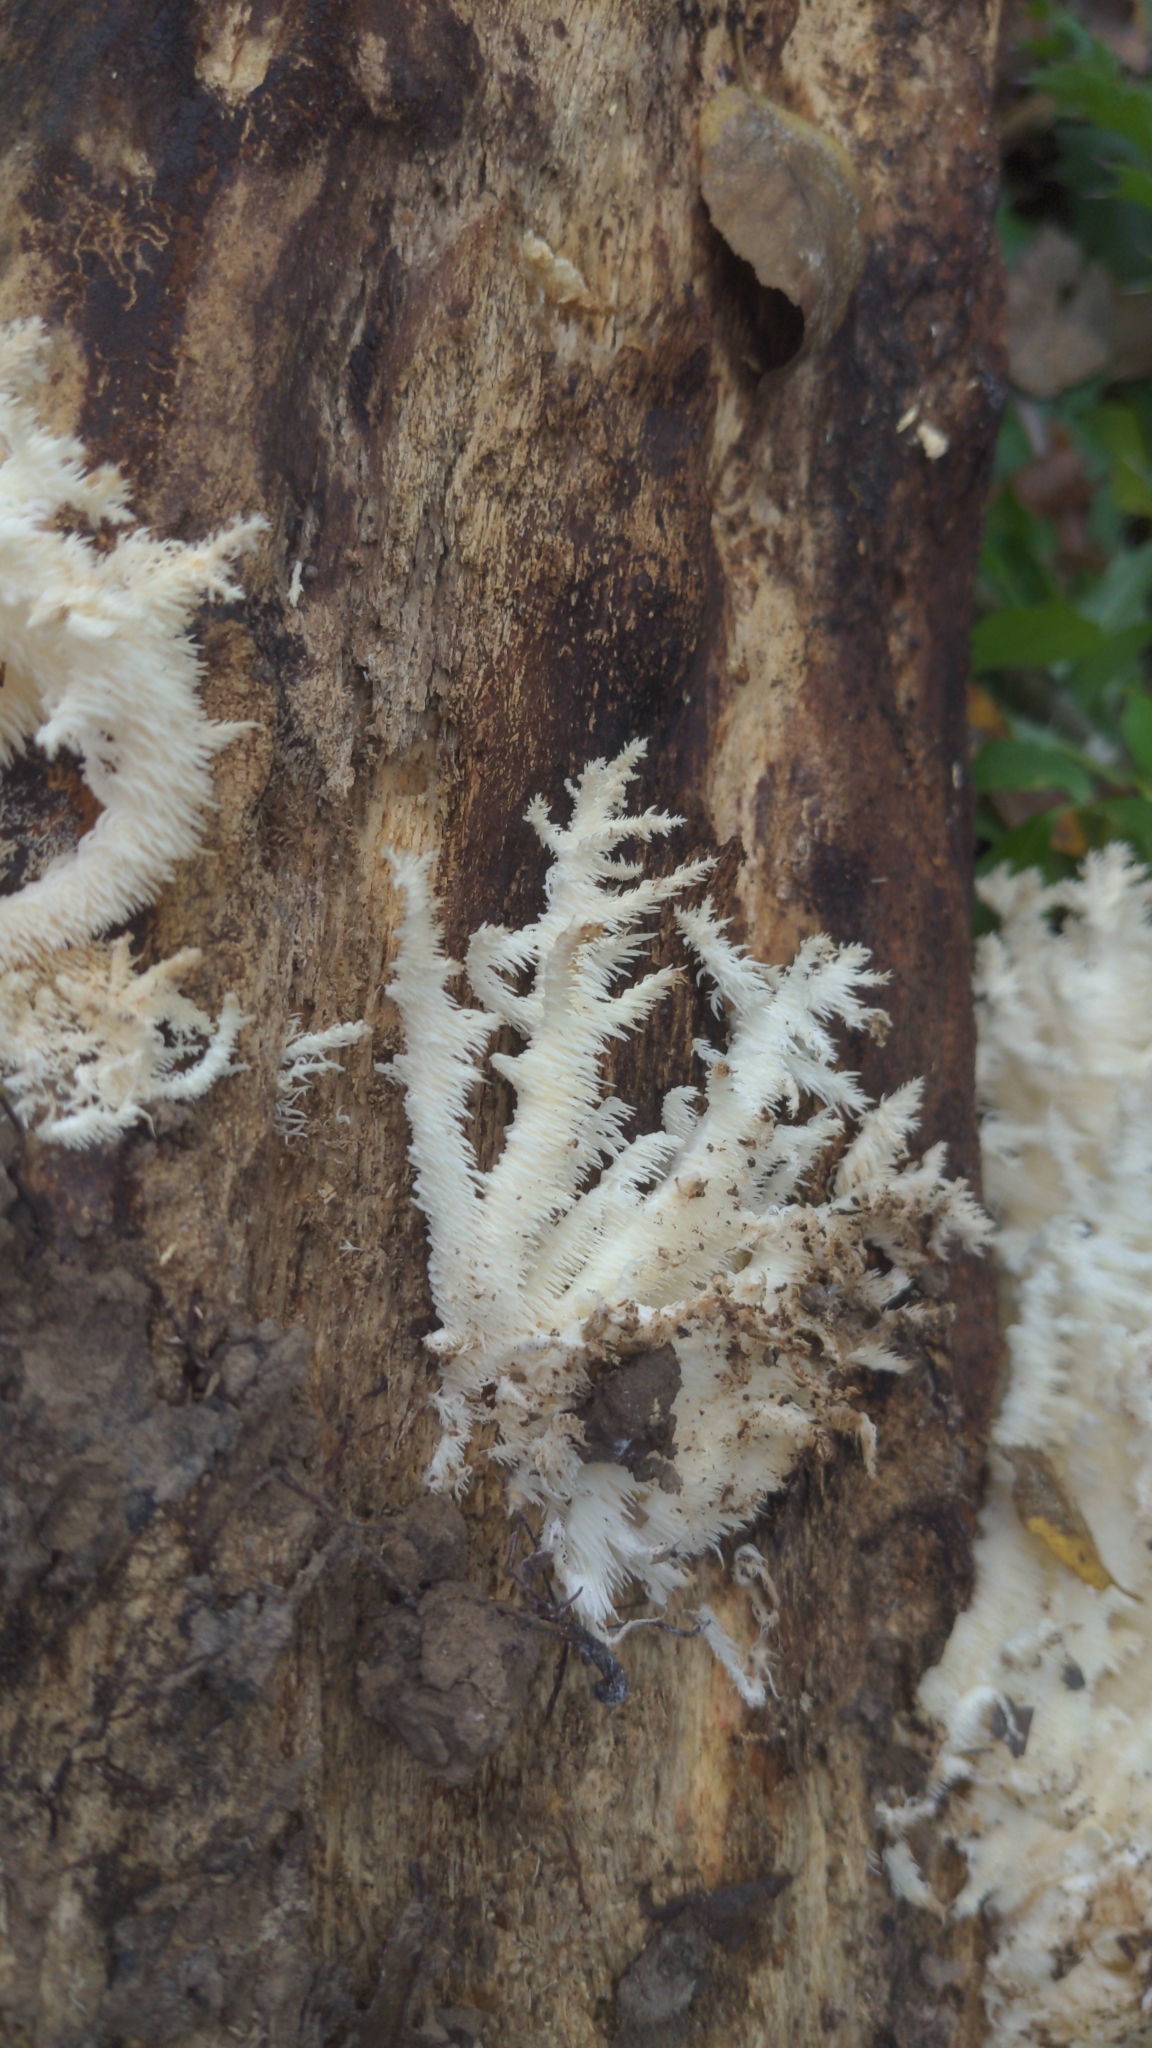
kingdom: Fungi
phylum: Basidiomycota
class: Agaricomycetes
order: Russulales
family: Hericiaceae
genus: Hericium
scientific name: Hericium coralloides
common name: Coral tooth
